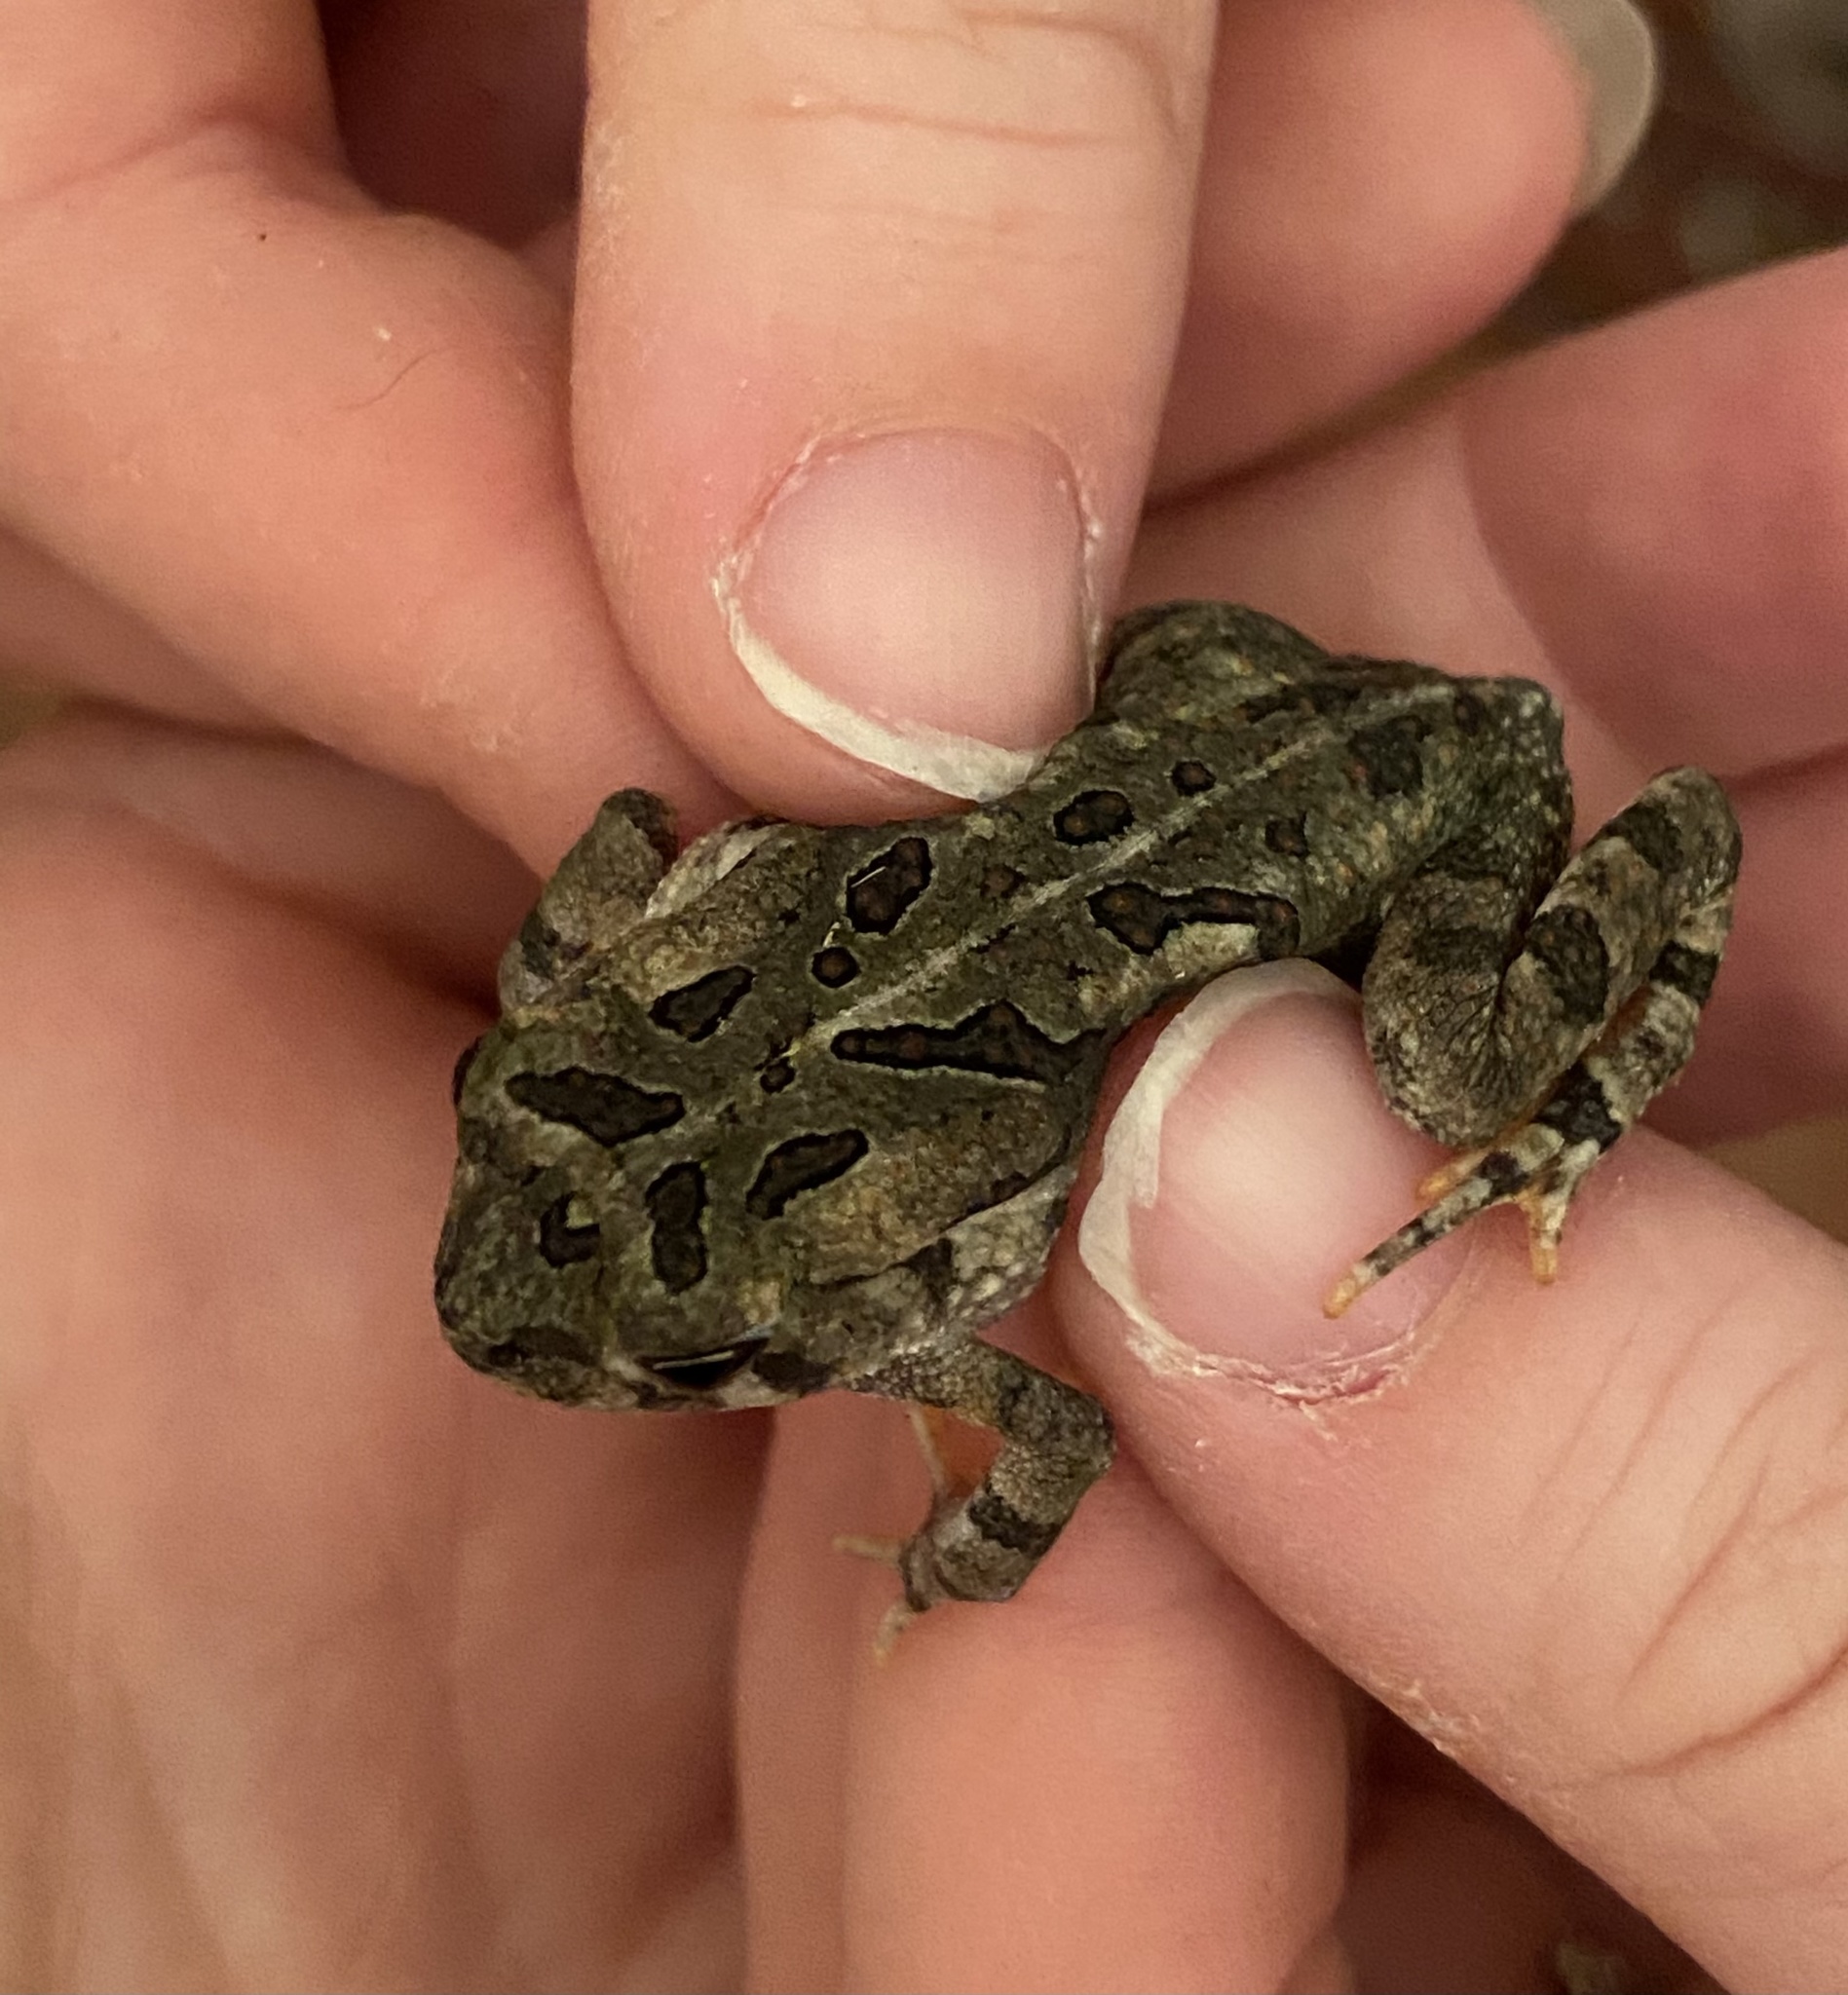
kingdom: Animalia
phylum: Chordata
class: Amphibia
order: Anura
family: Bufonidae
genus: Anaxyrus
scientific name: Anaxyrus fowleri
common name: Fowler's toad
